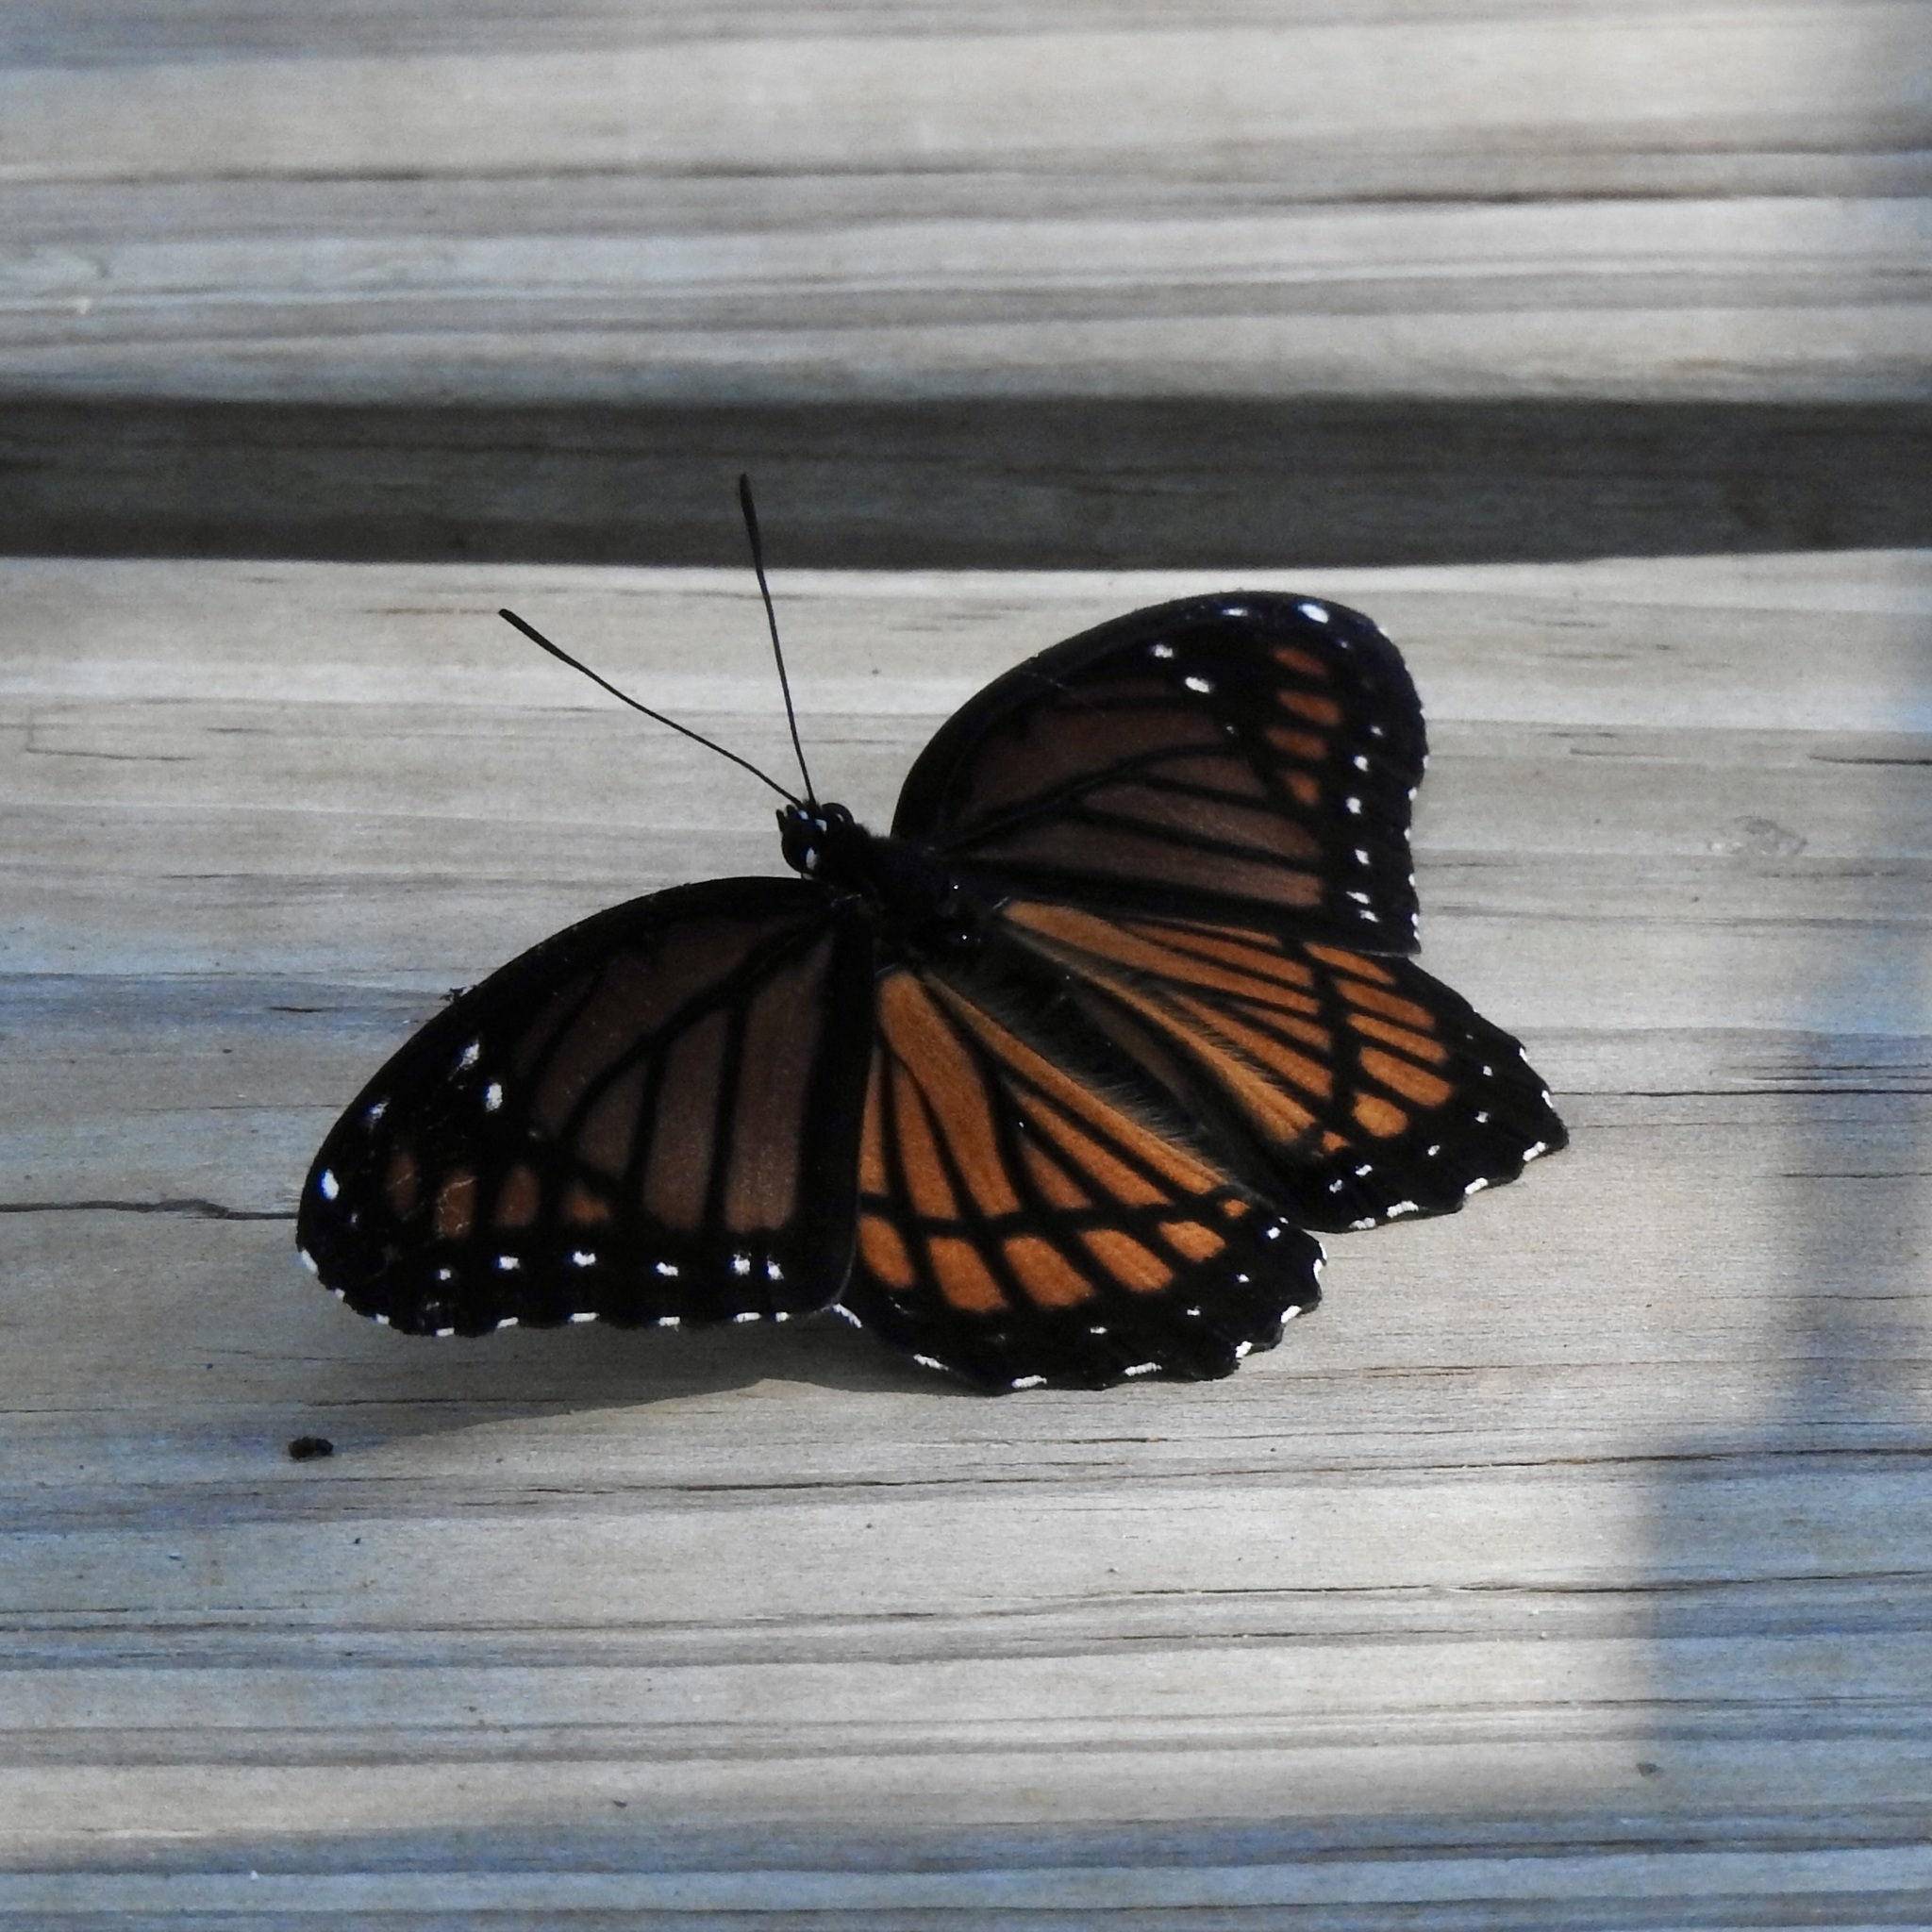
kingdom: Animalia
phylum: Arthropoda
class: Insecta
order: Lepidoptera
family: Nymphalidae
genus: Limenitis
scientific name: Limenitis archippus
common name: Viceroy
